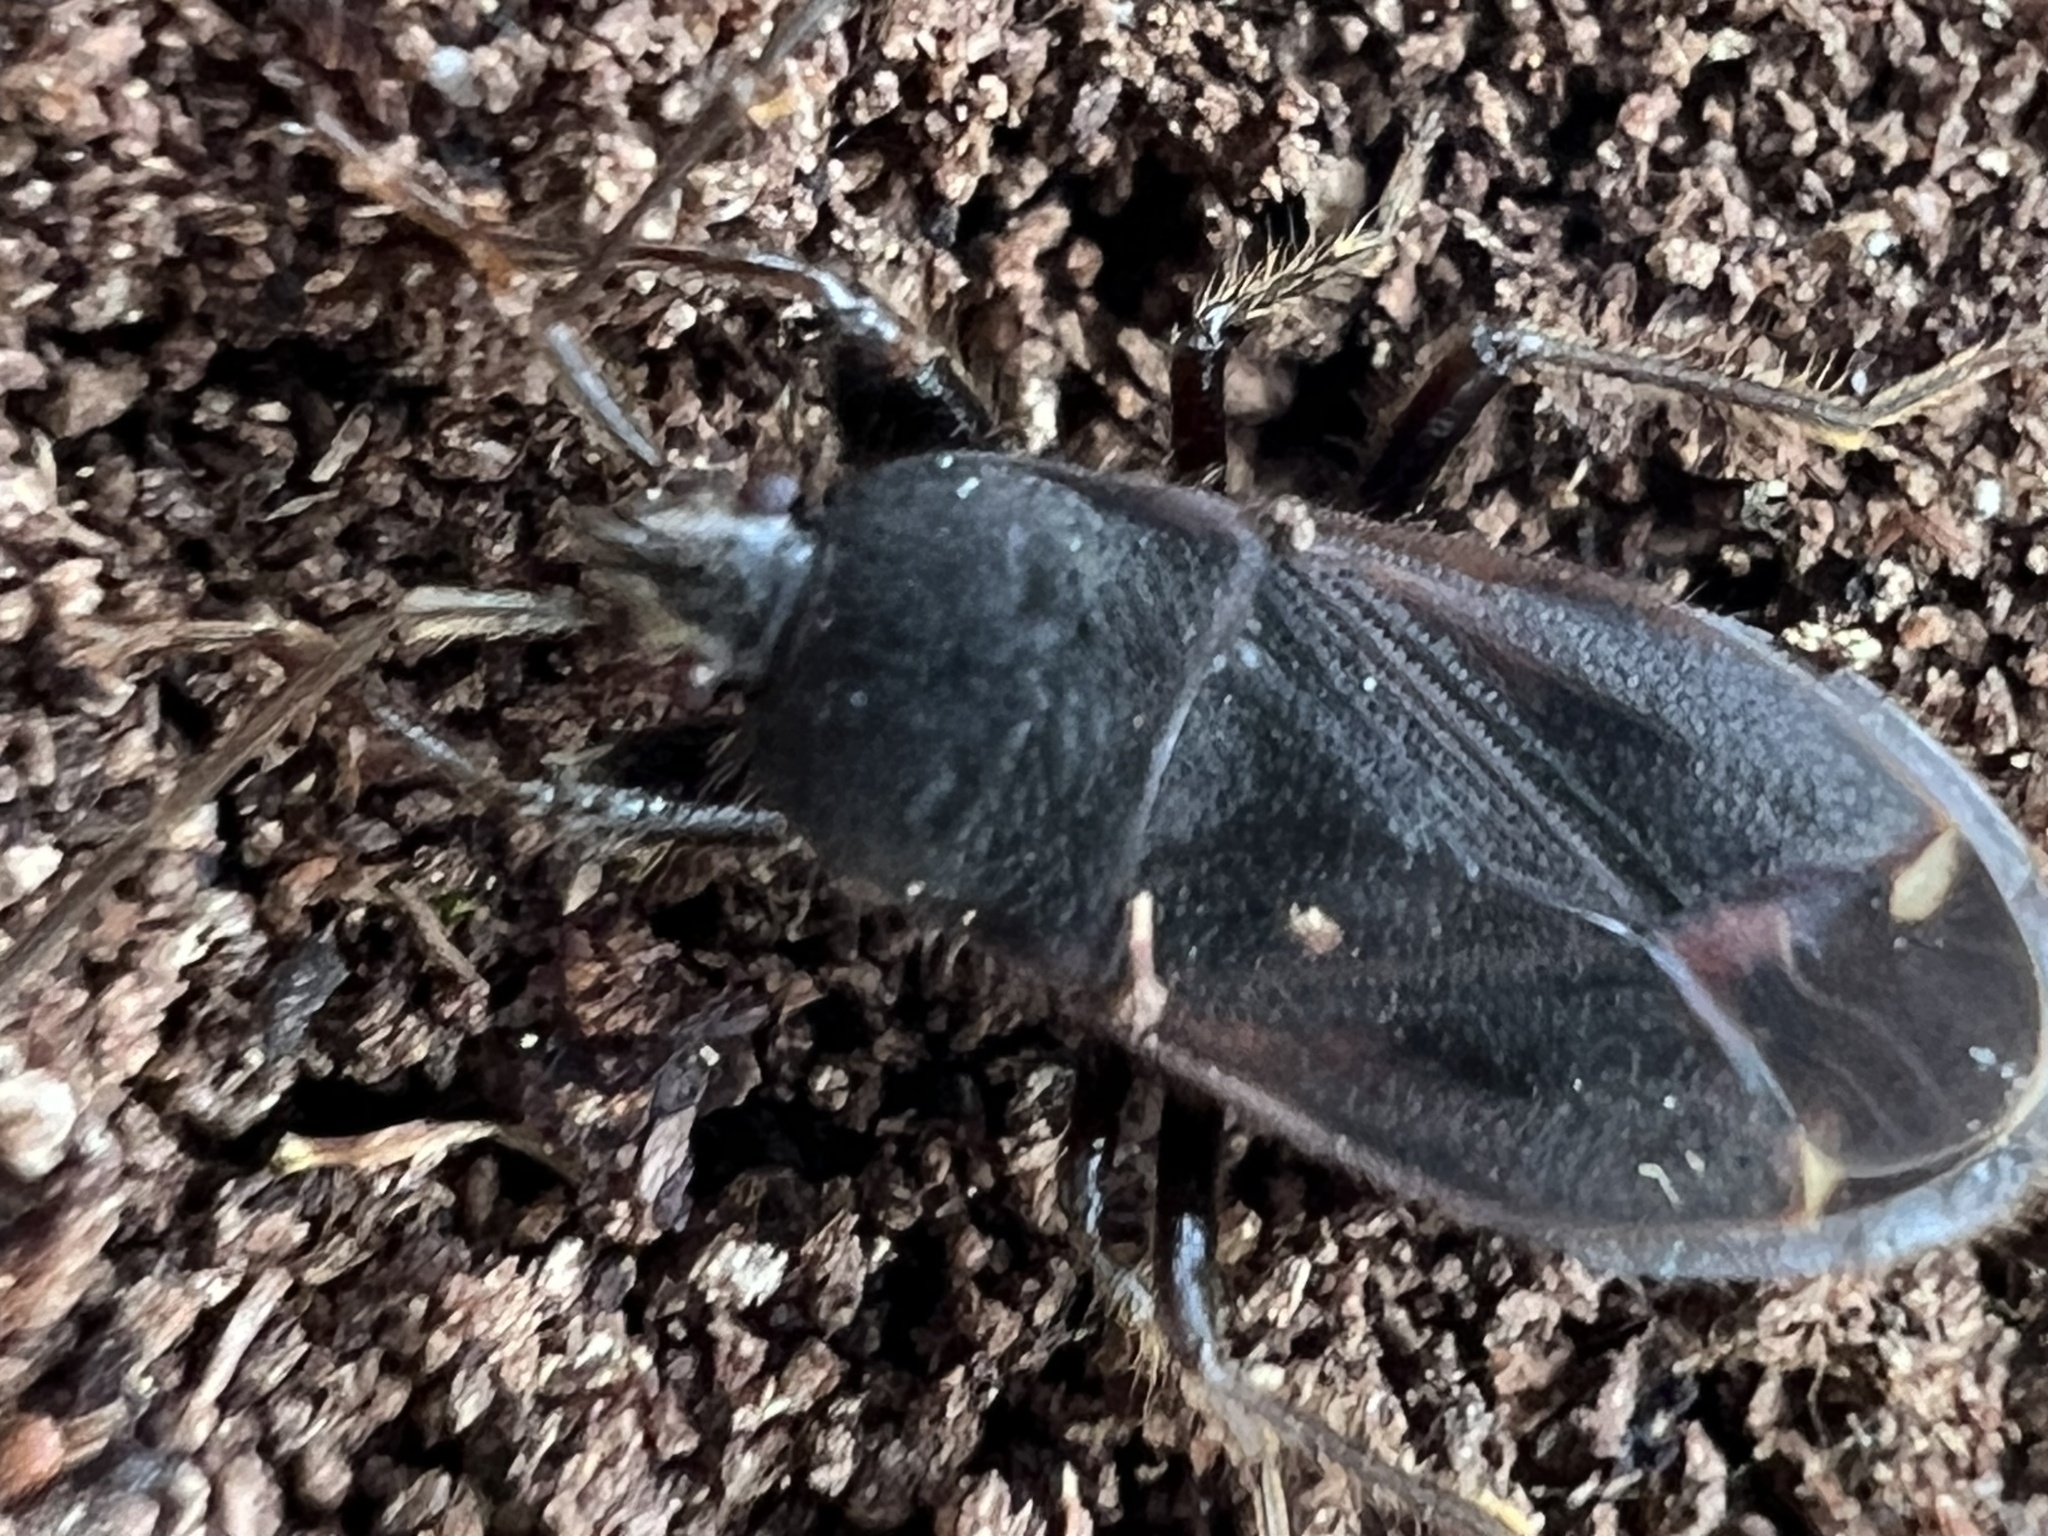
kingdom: Animalia
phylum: Arthropoda
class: Insecta
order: Hemiptera
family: Rhyparochromidae
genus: Eremocoris
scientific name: Eremocoris setosus
